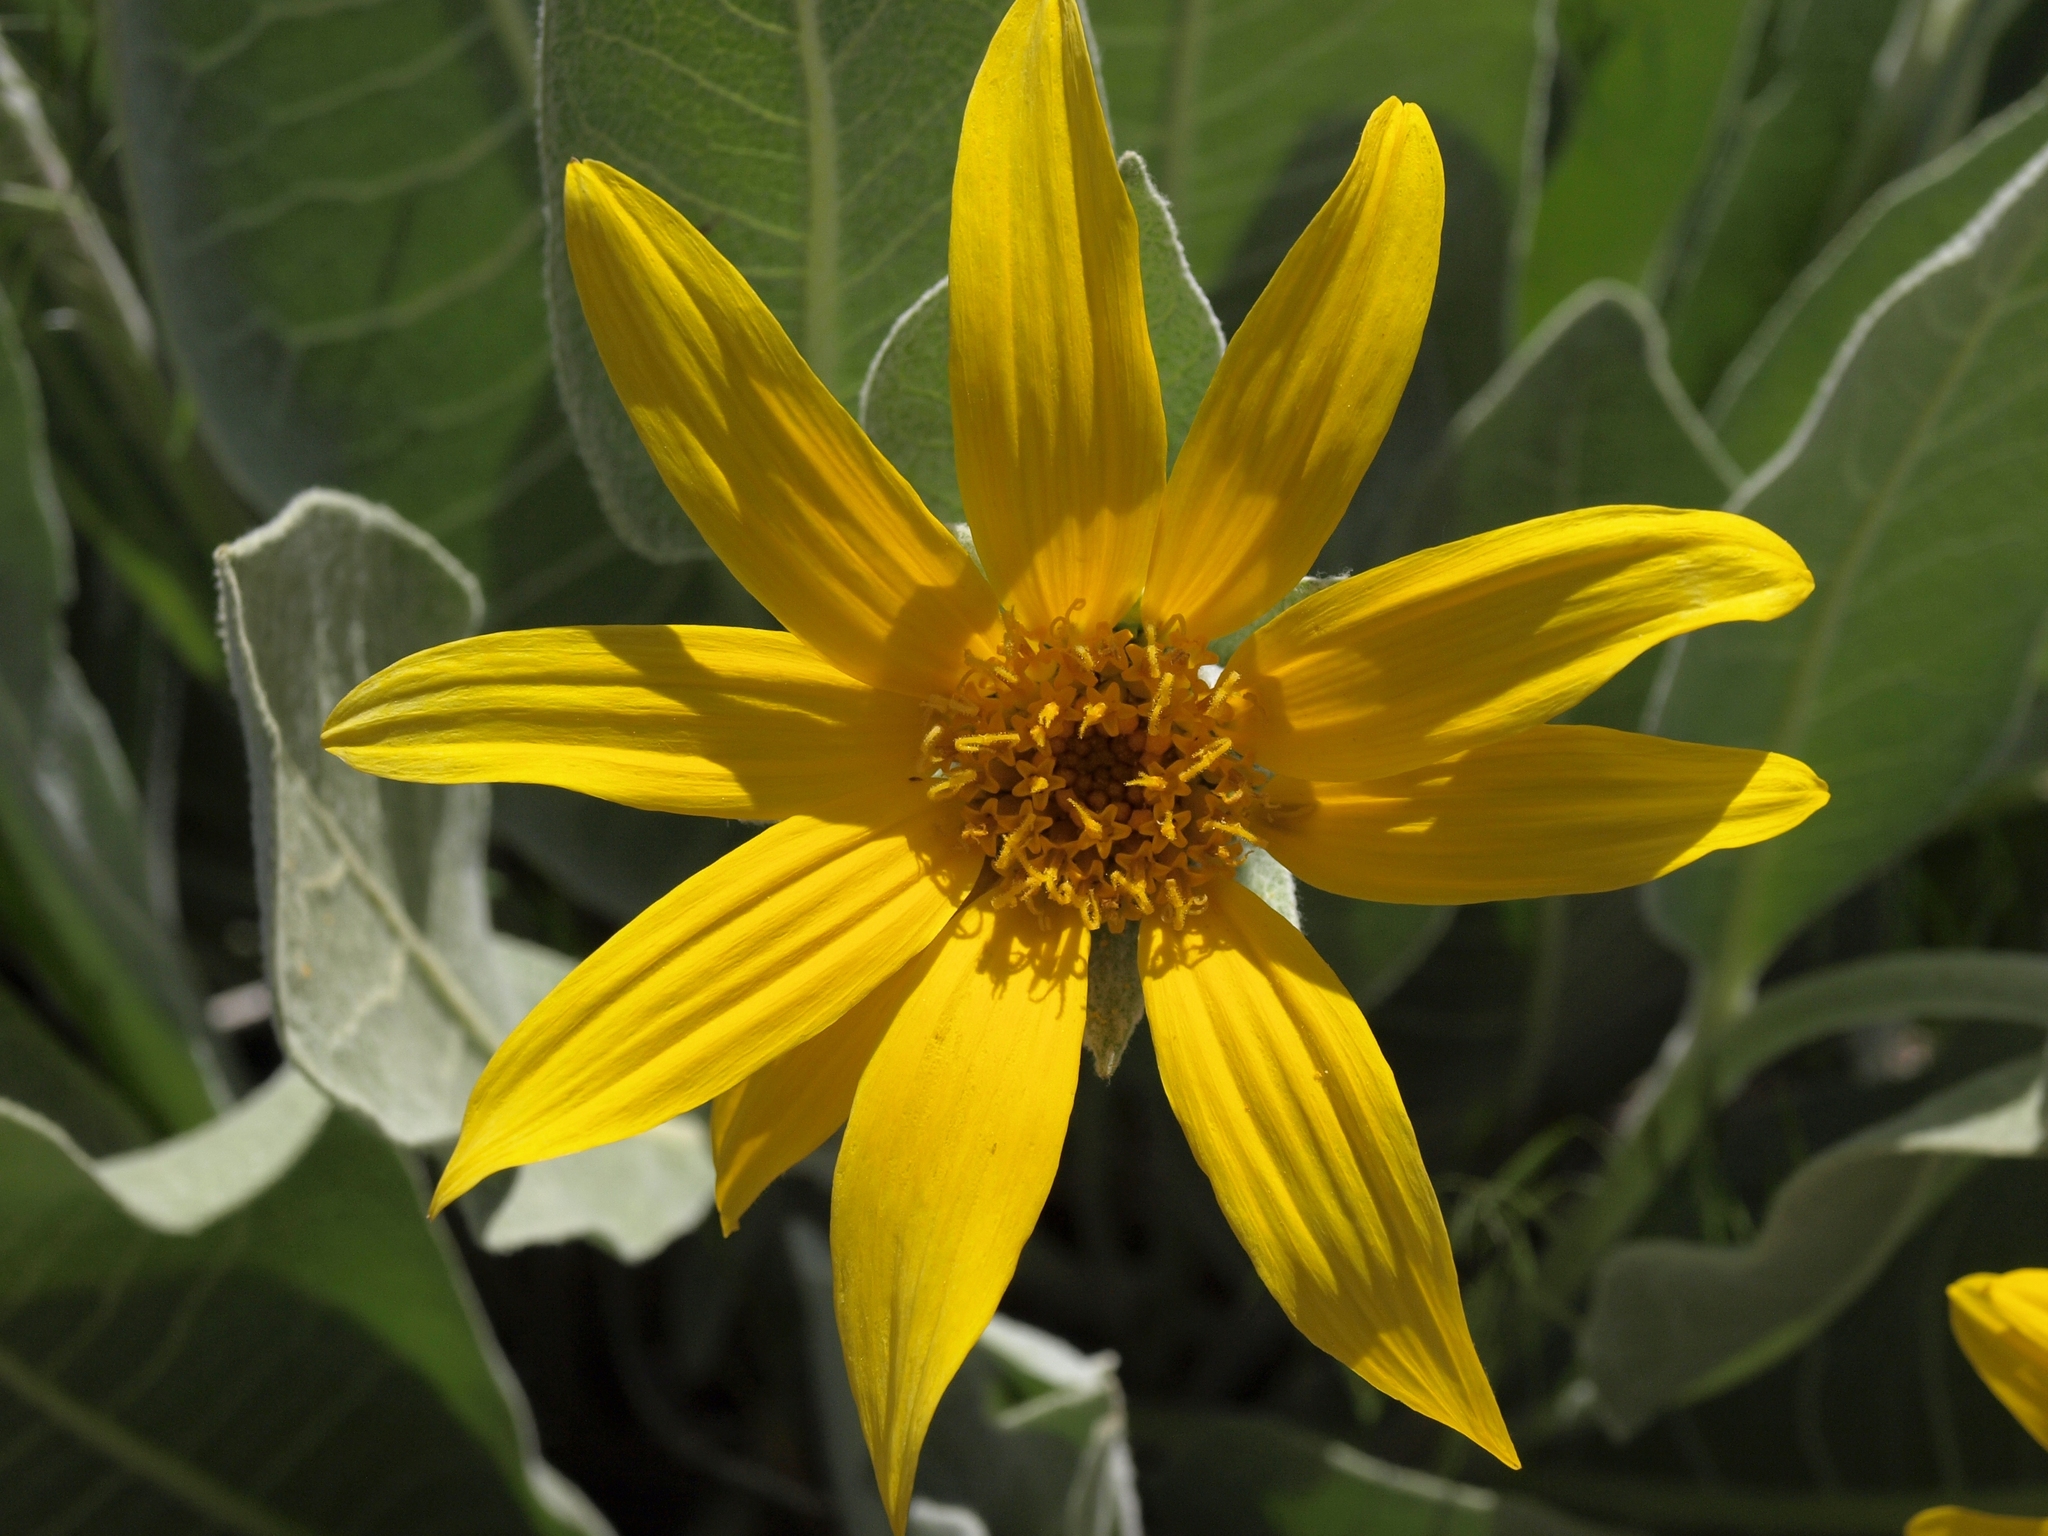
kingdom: Plantae
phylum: Tracheophyta
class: Magnoliopsida
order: Asterales
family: Asteraceae
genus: Wyethia
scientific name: Wyethia mollis
